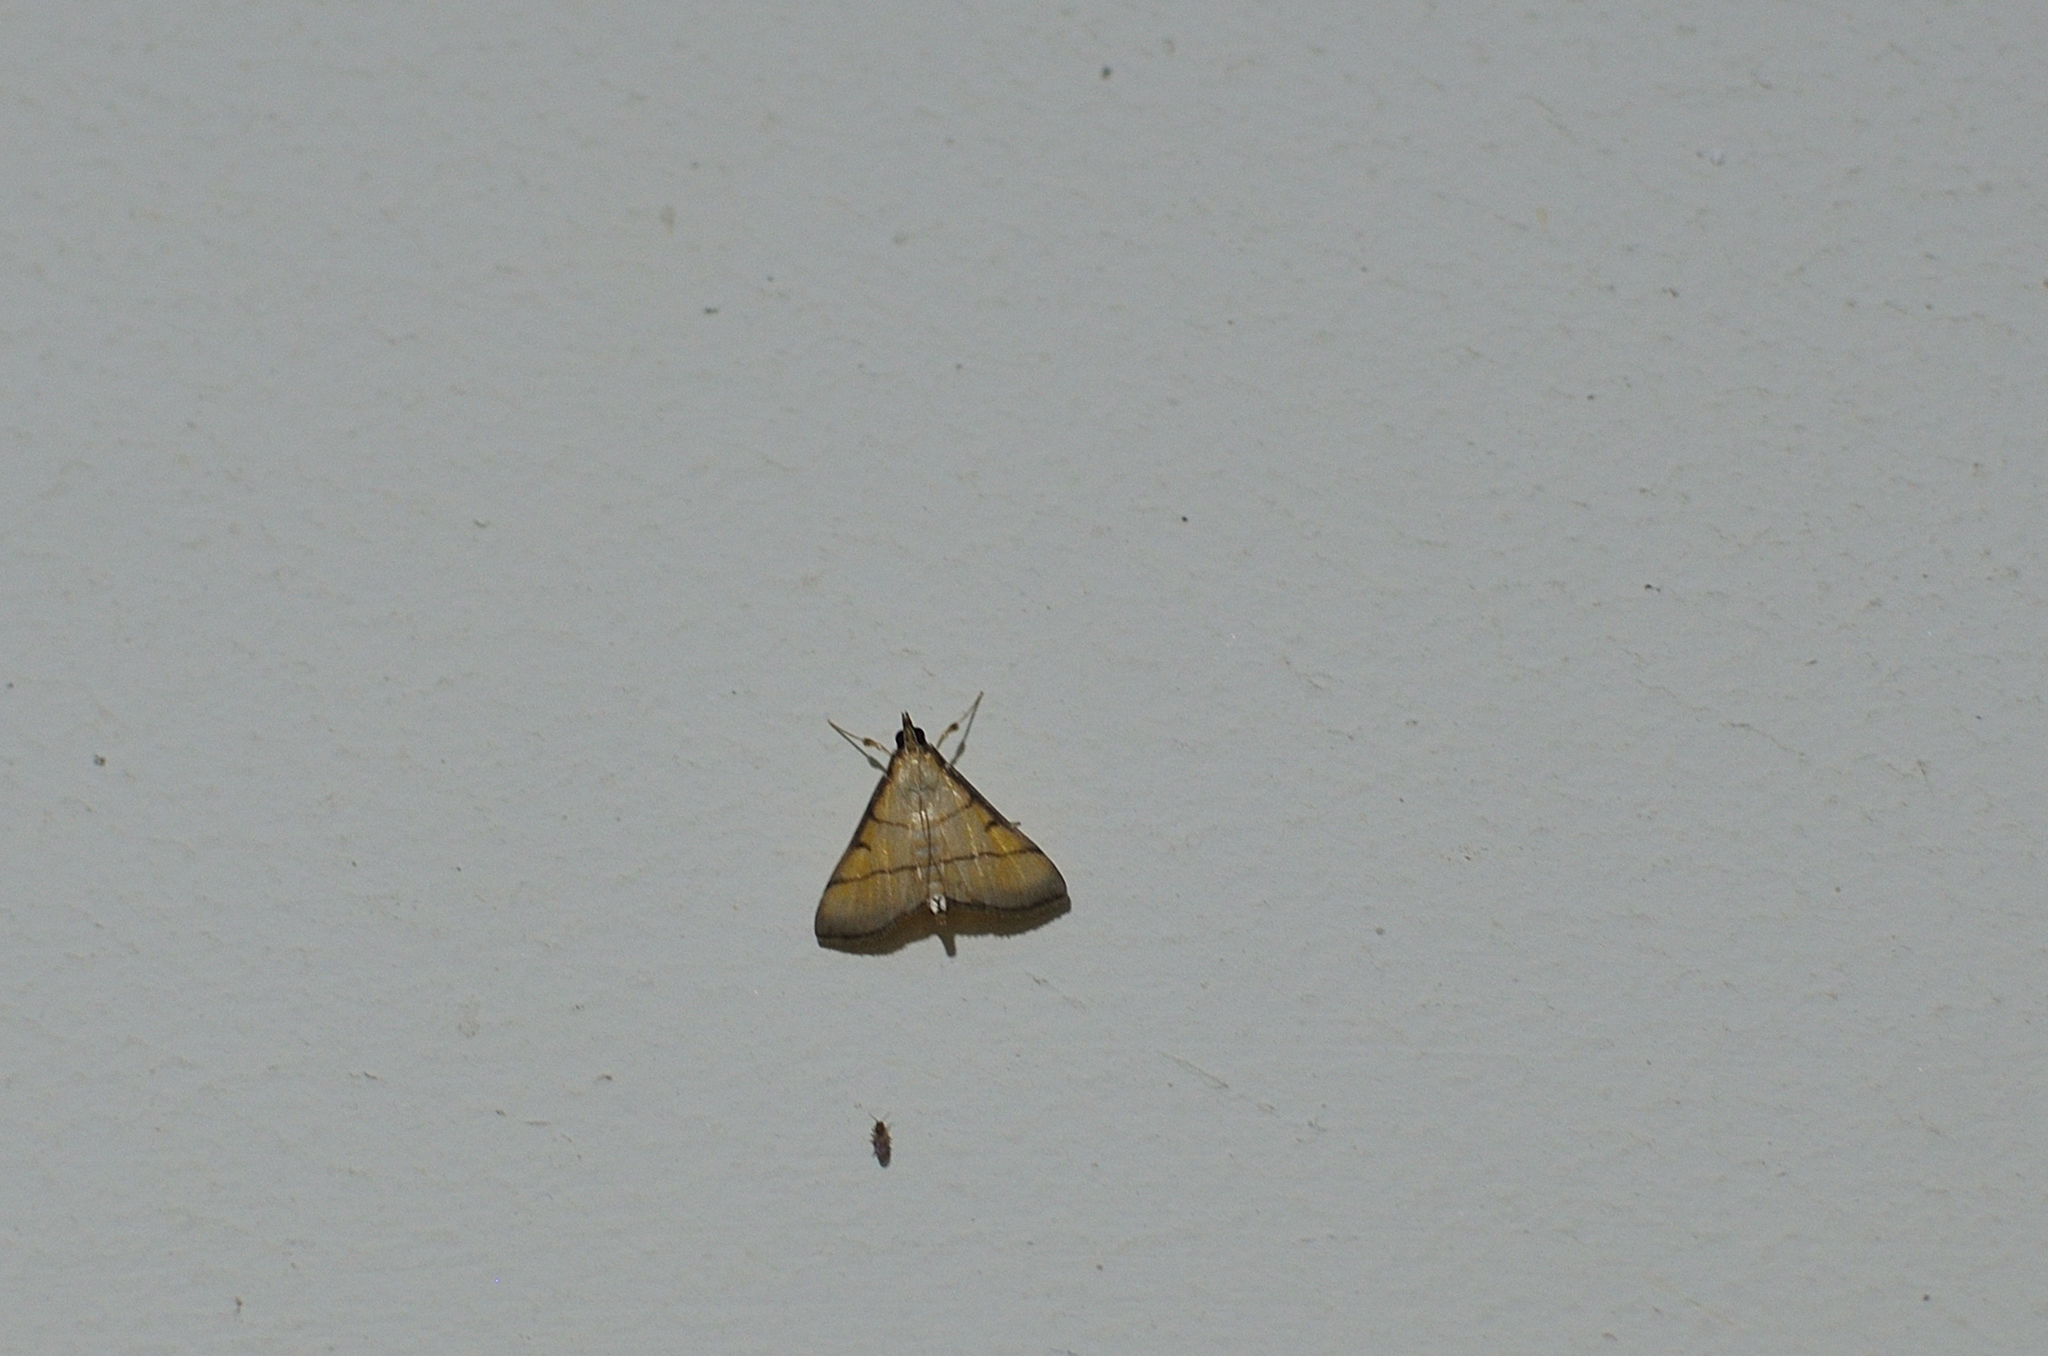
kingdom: Animalia
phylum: Arthropoda
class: Insecta
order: Lepidoptera
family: Crambidae
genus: Cnaphalocrocis
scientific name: Cnaphalocrocis medinalis
